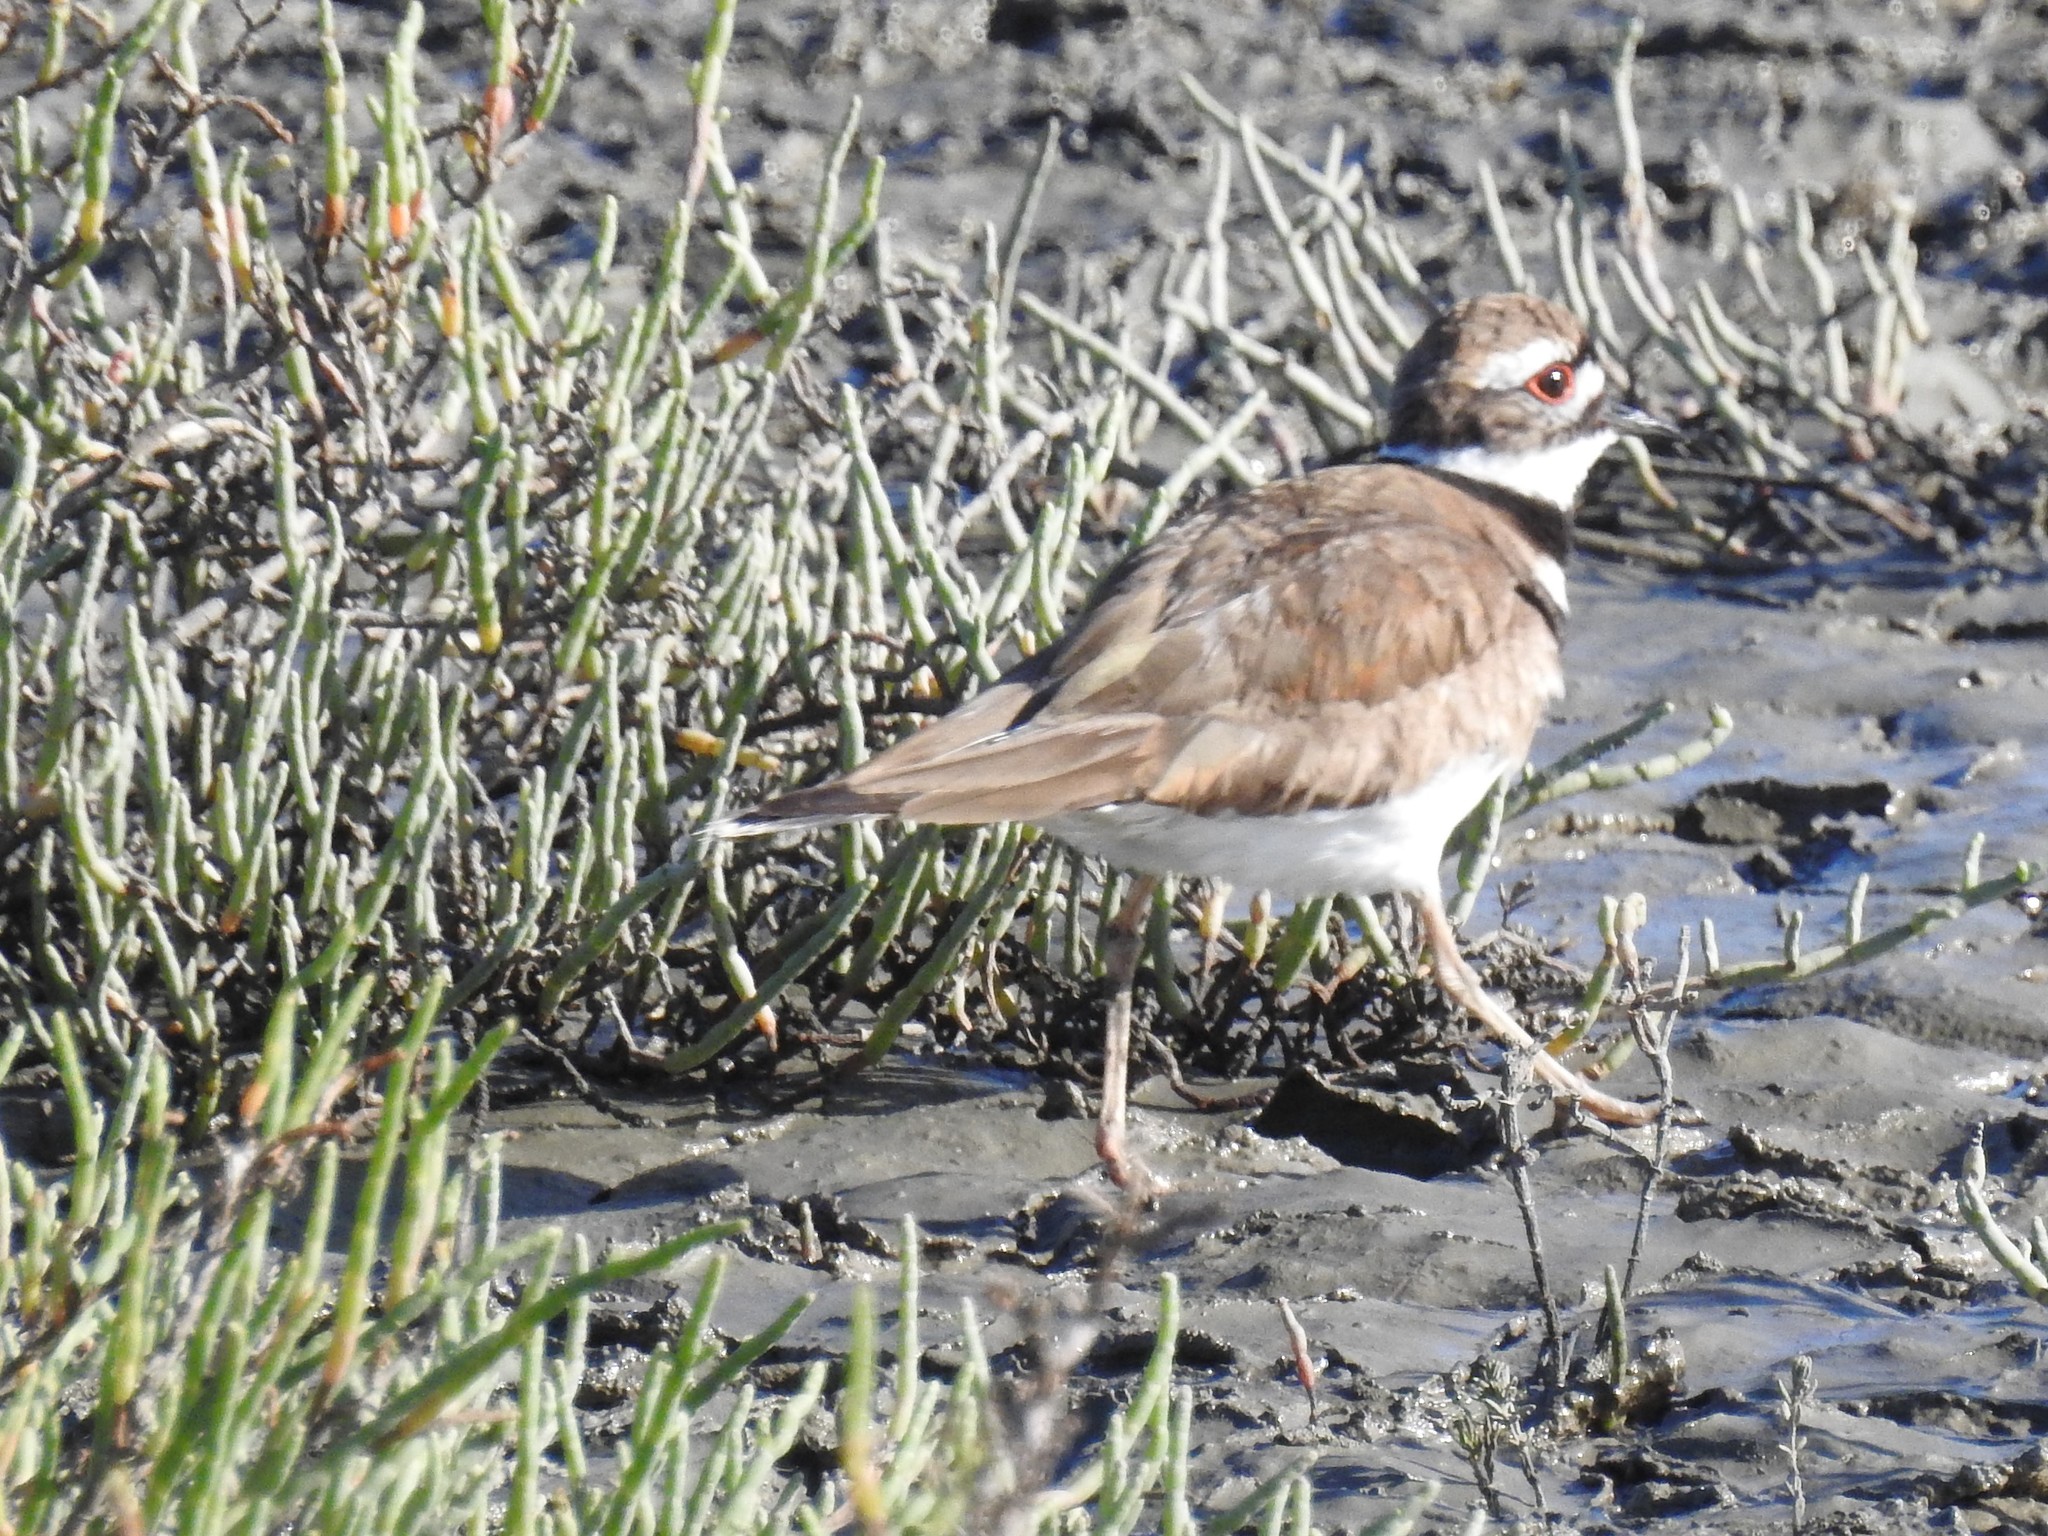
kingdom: Animalia
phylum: Chordata
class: Aves
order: Charadriiformes
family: Charadriidae
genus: Charadrius
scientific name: Charadrius vociferus
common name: Killdeer
